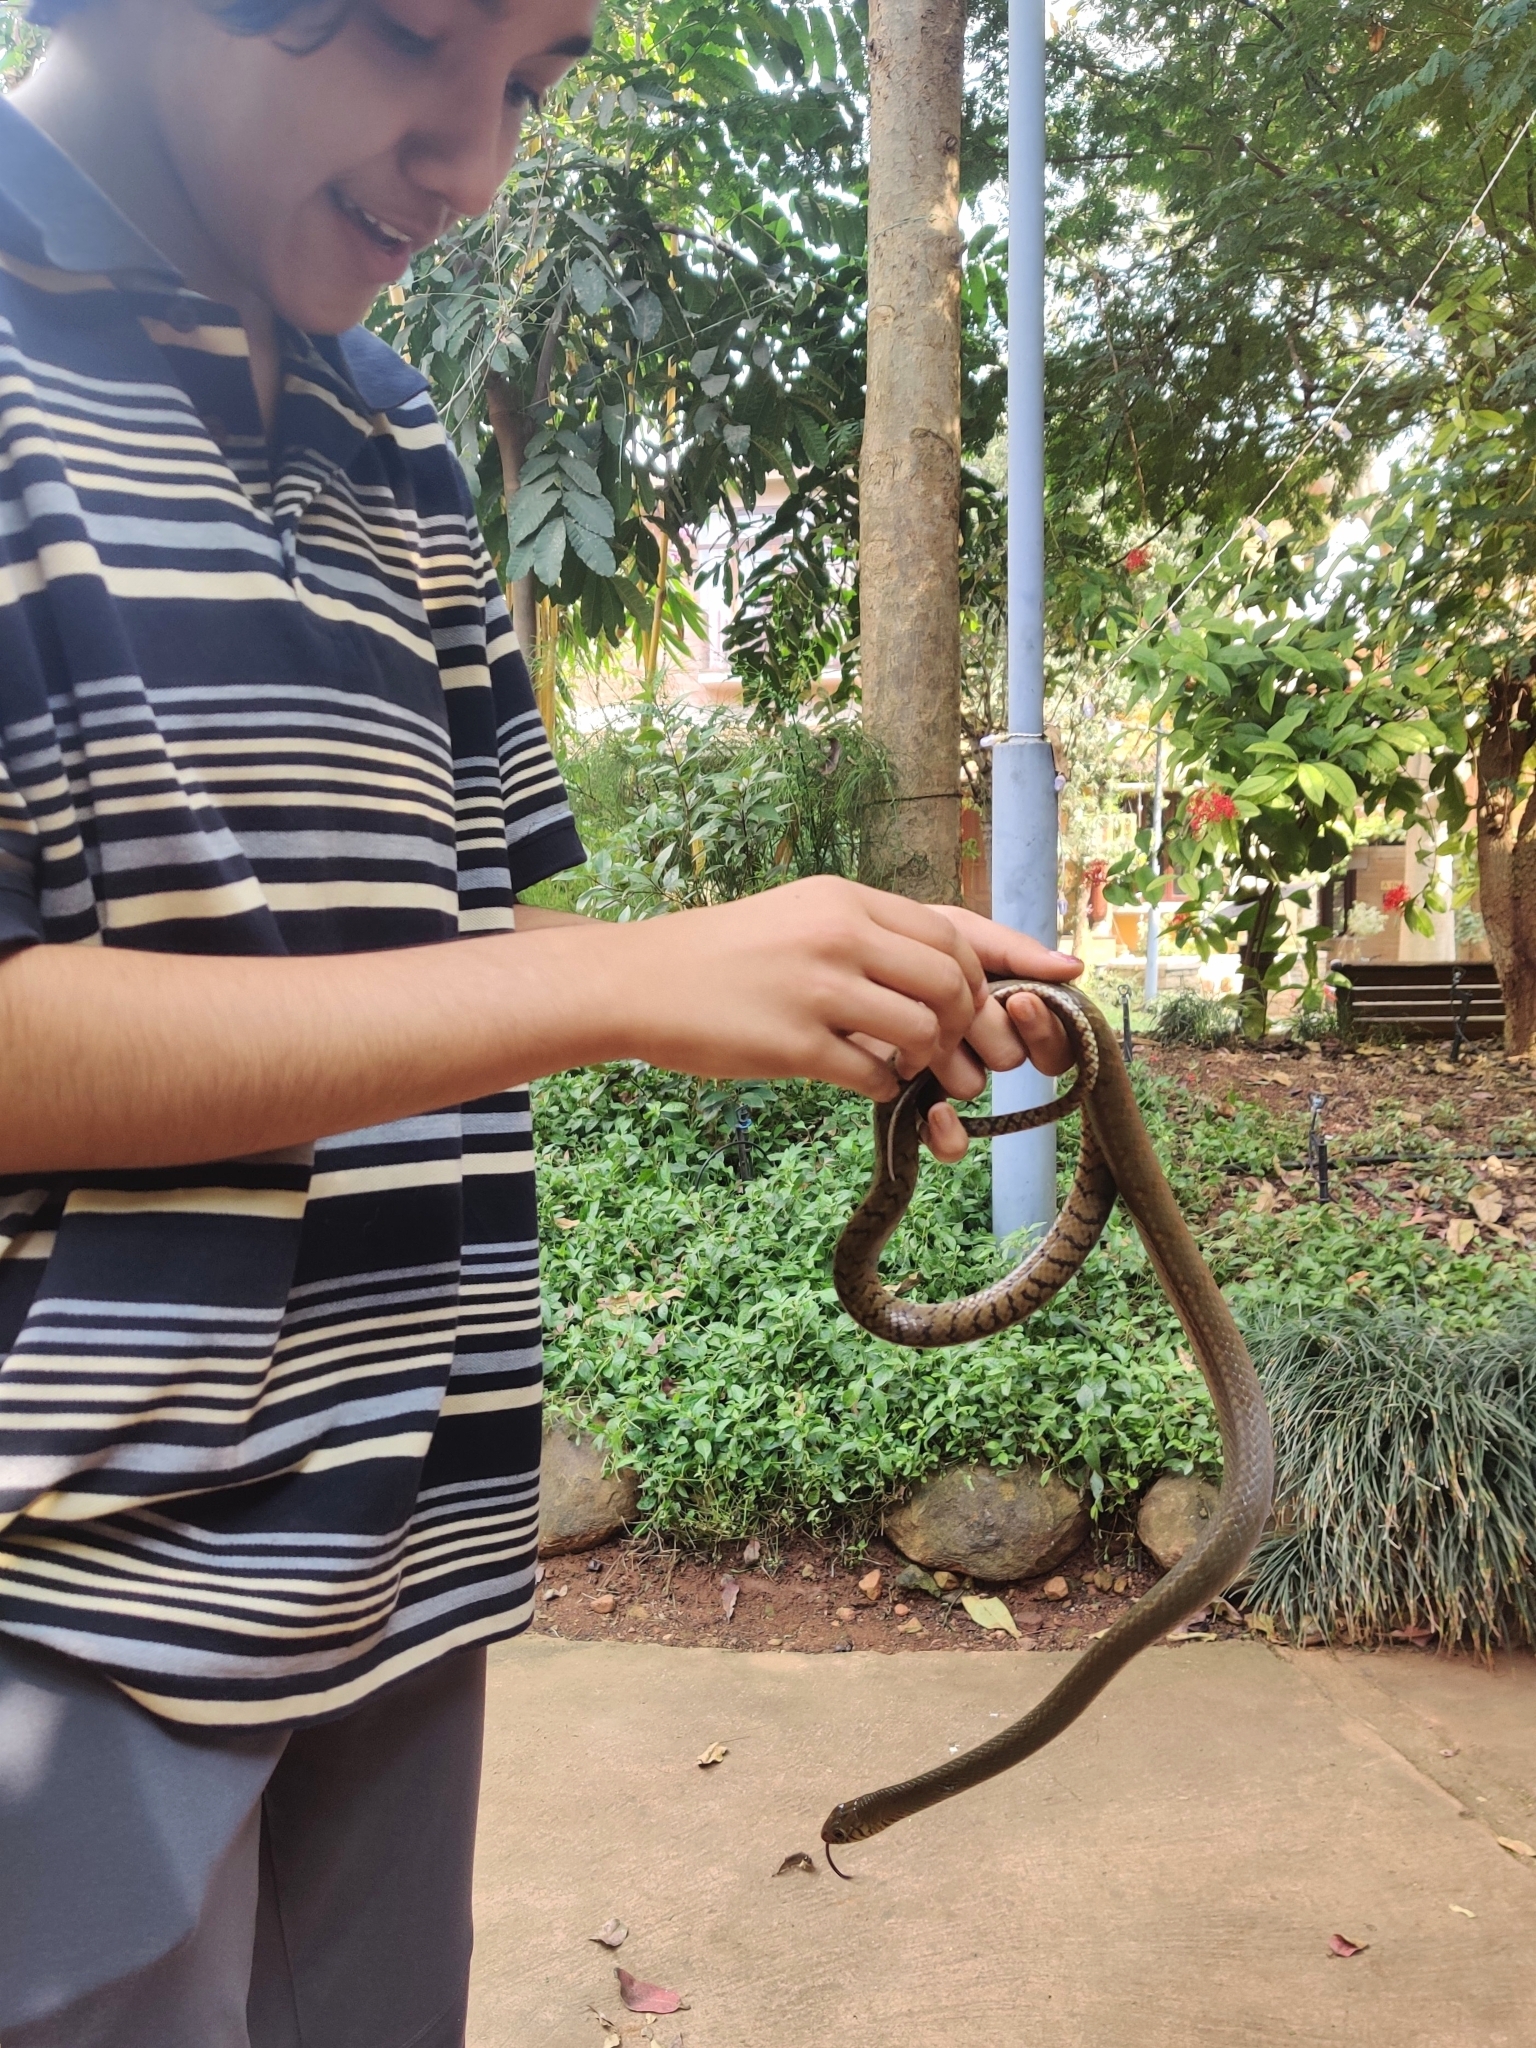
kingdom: Animalia
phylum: Chordata
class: Squamata
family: Colubridae
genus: Ptyas
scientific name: Ptyas mucosa
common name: Oriental ratsnake
